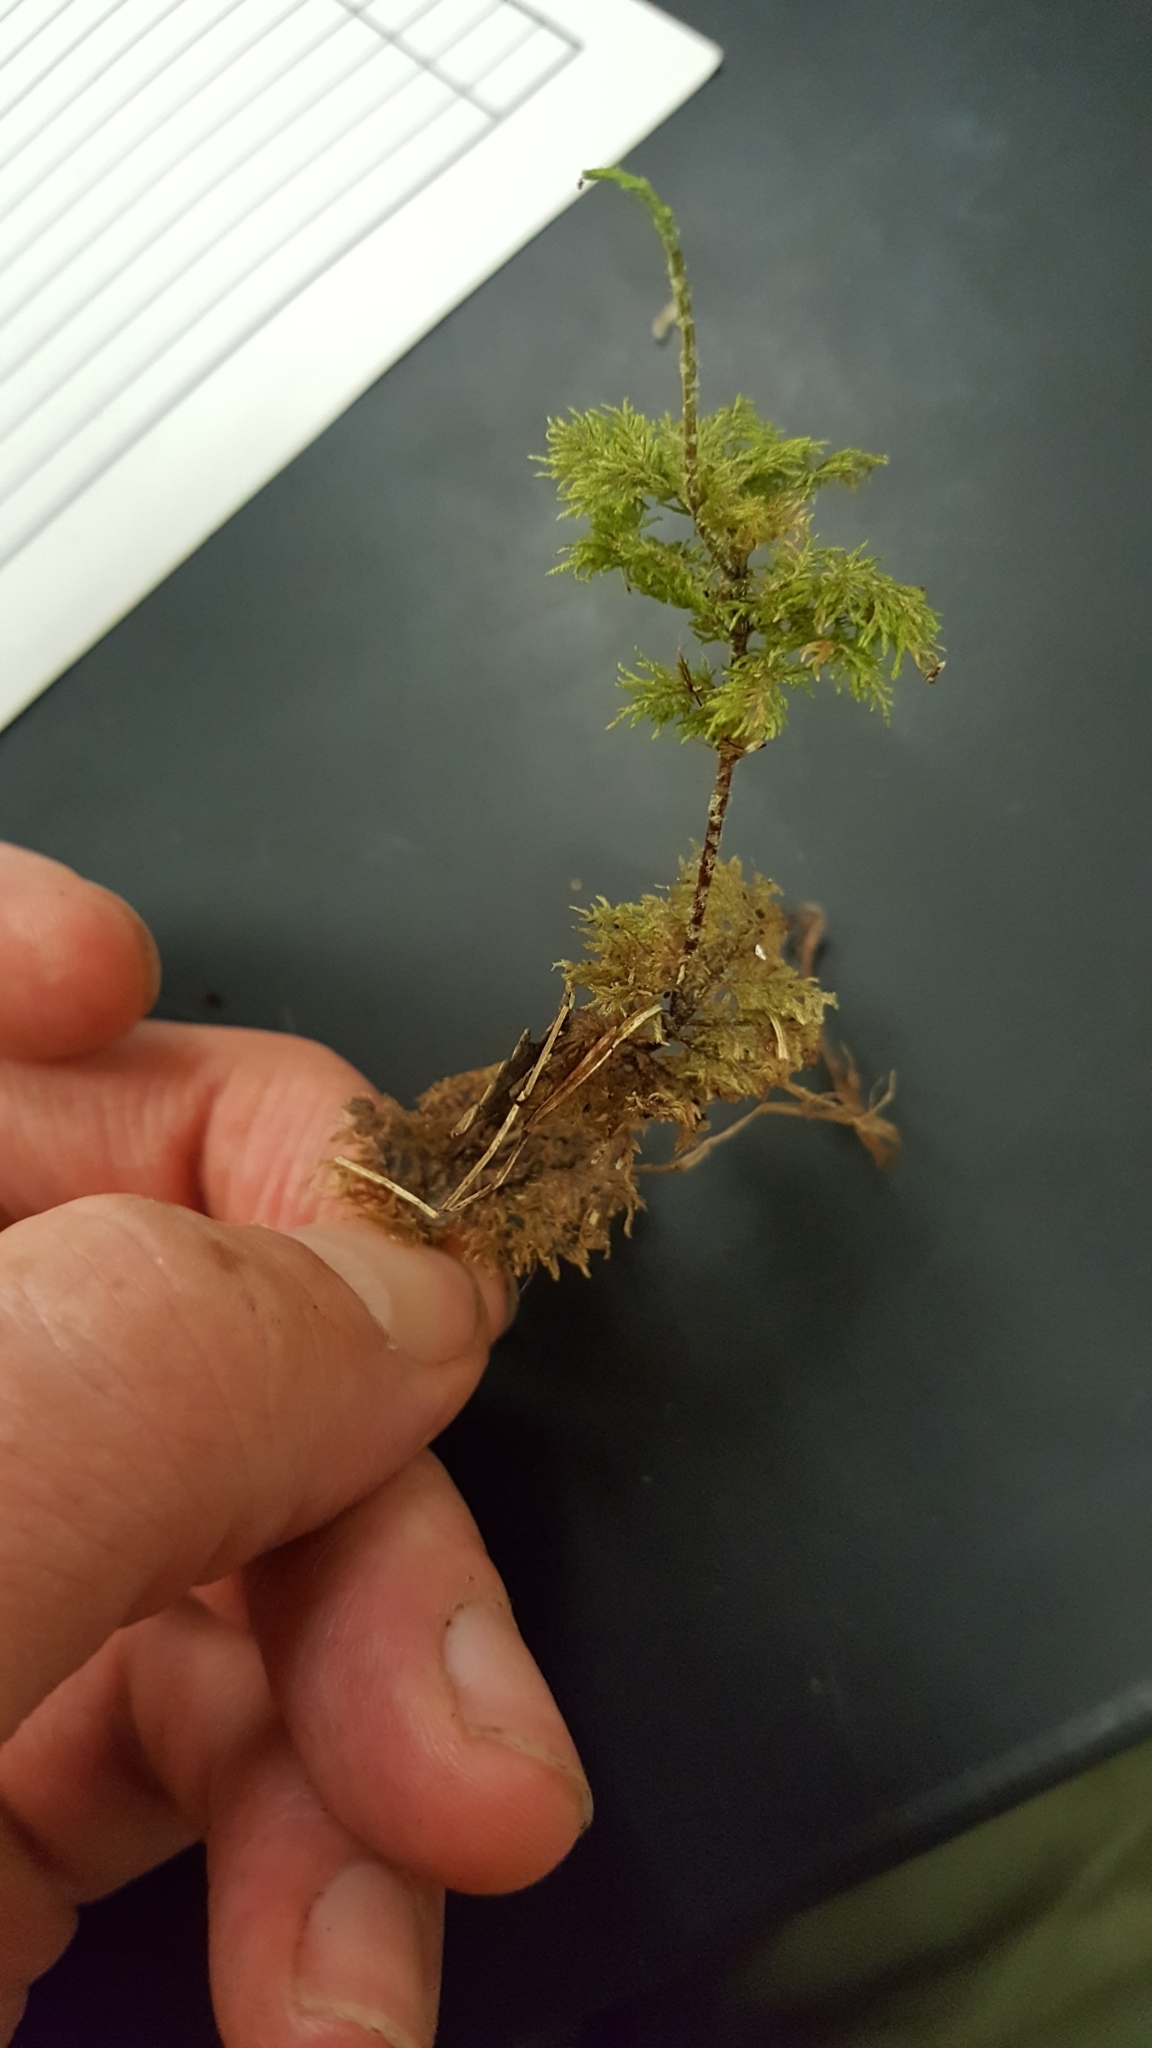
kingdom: Plantae
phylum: Bryophyta
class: Bryopsida
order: Hypnales
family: Hylocomiaceae
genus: Hylocomium
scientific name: Hylocomium splendens
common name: Stairstep moss
